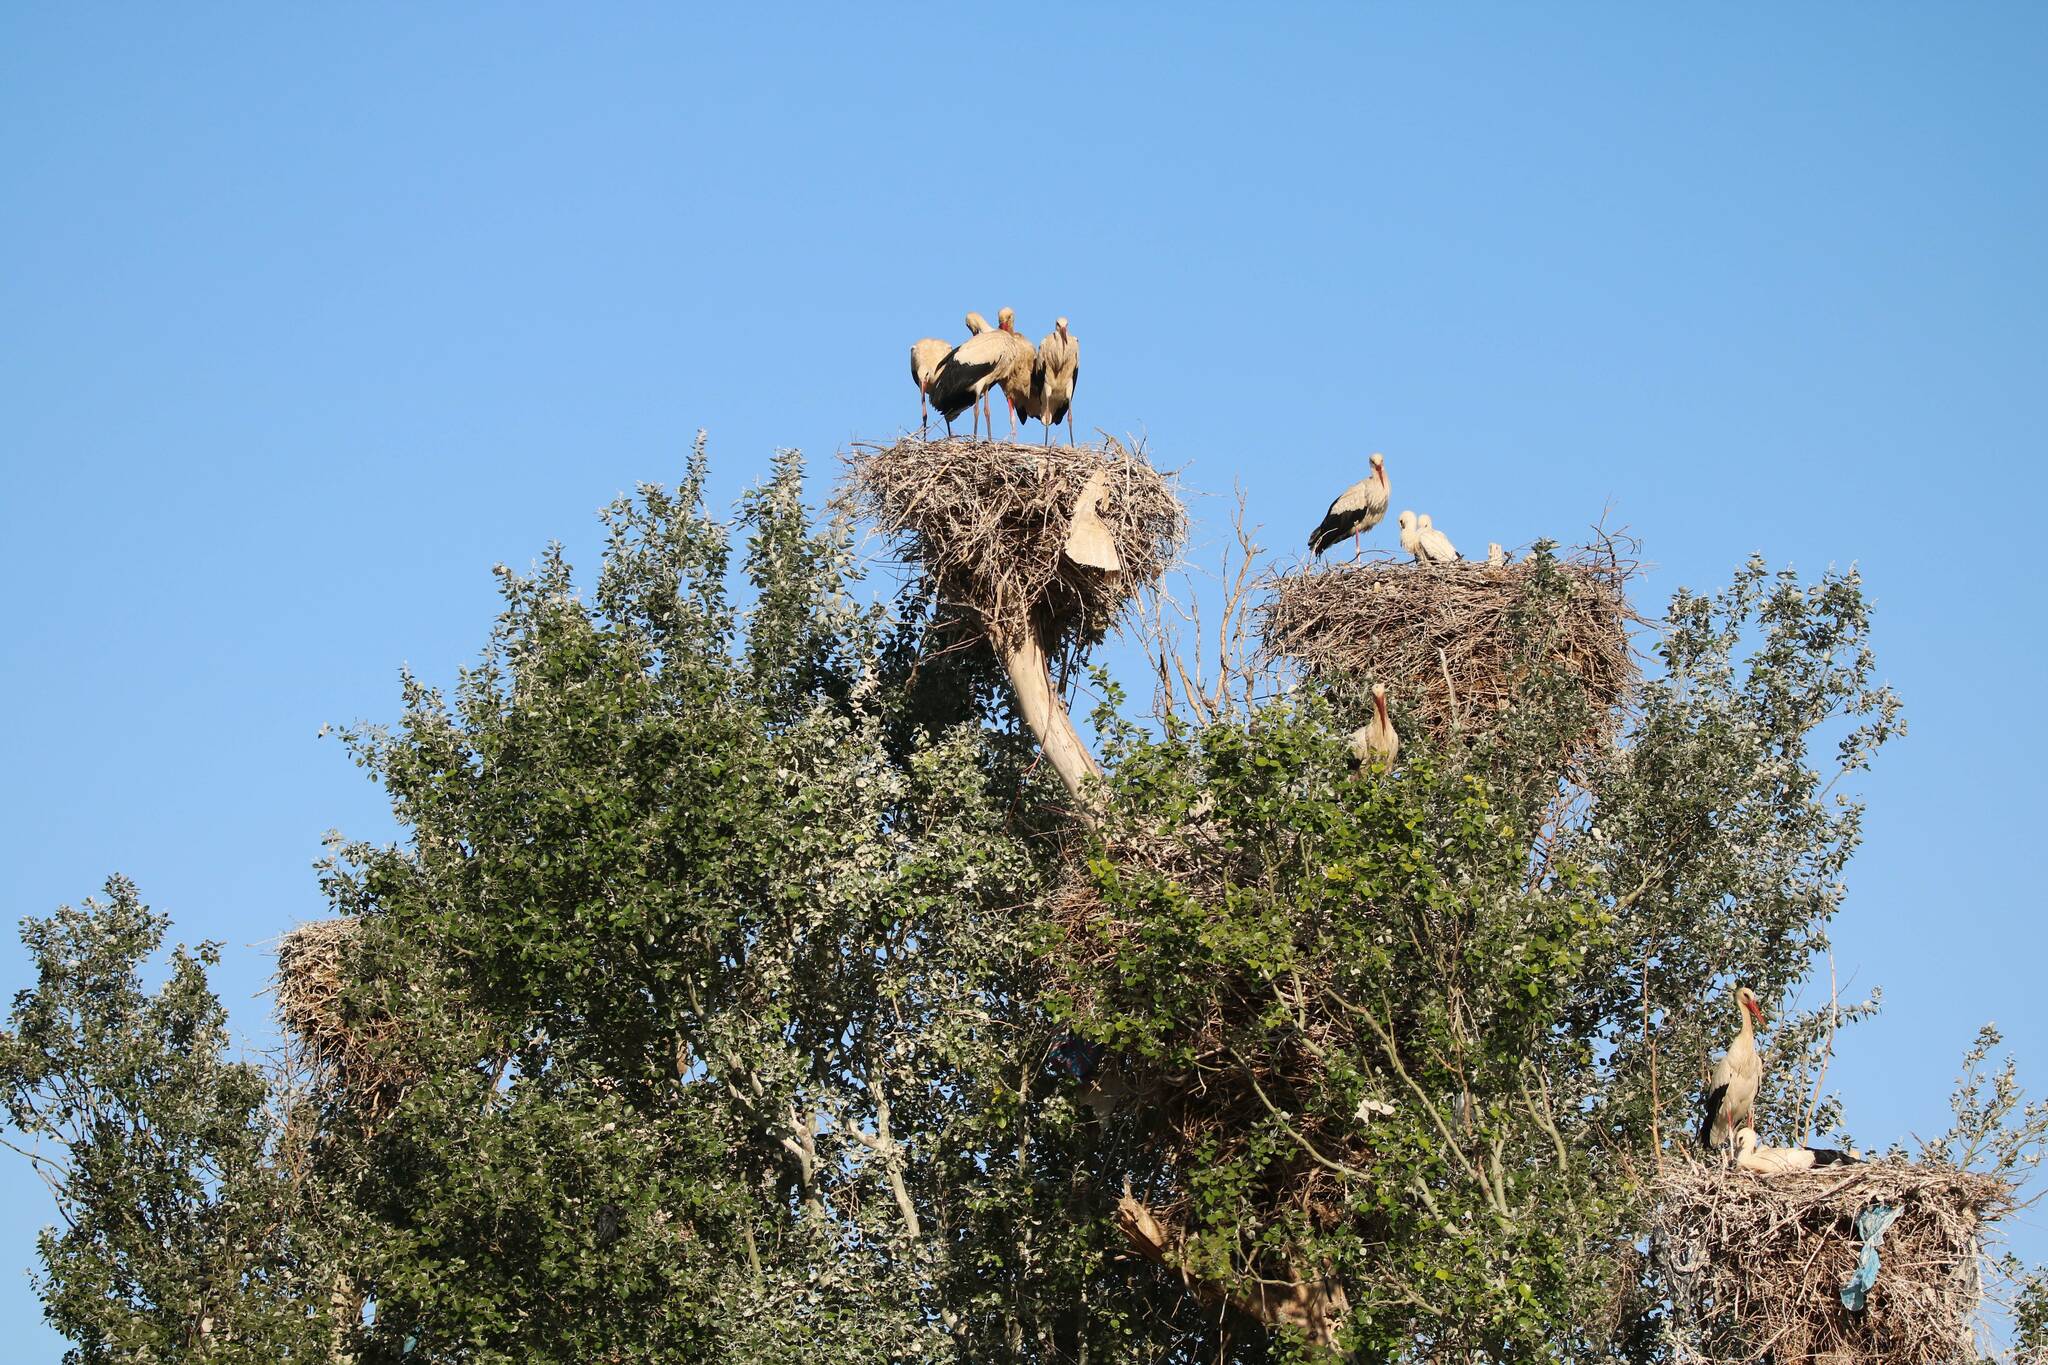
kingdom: Animalia
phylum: Chordata
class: Aves
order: Ciconiiformes
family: Ciconiidae
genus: Ciconia
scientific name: Ciconia ciconia
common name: White stork
